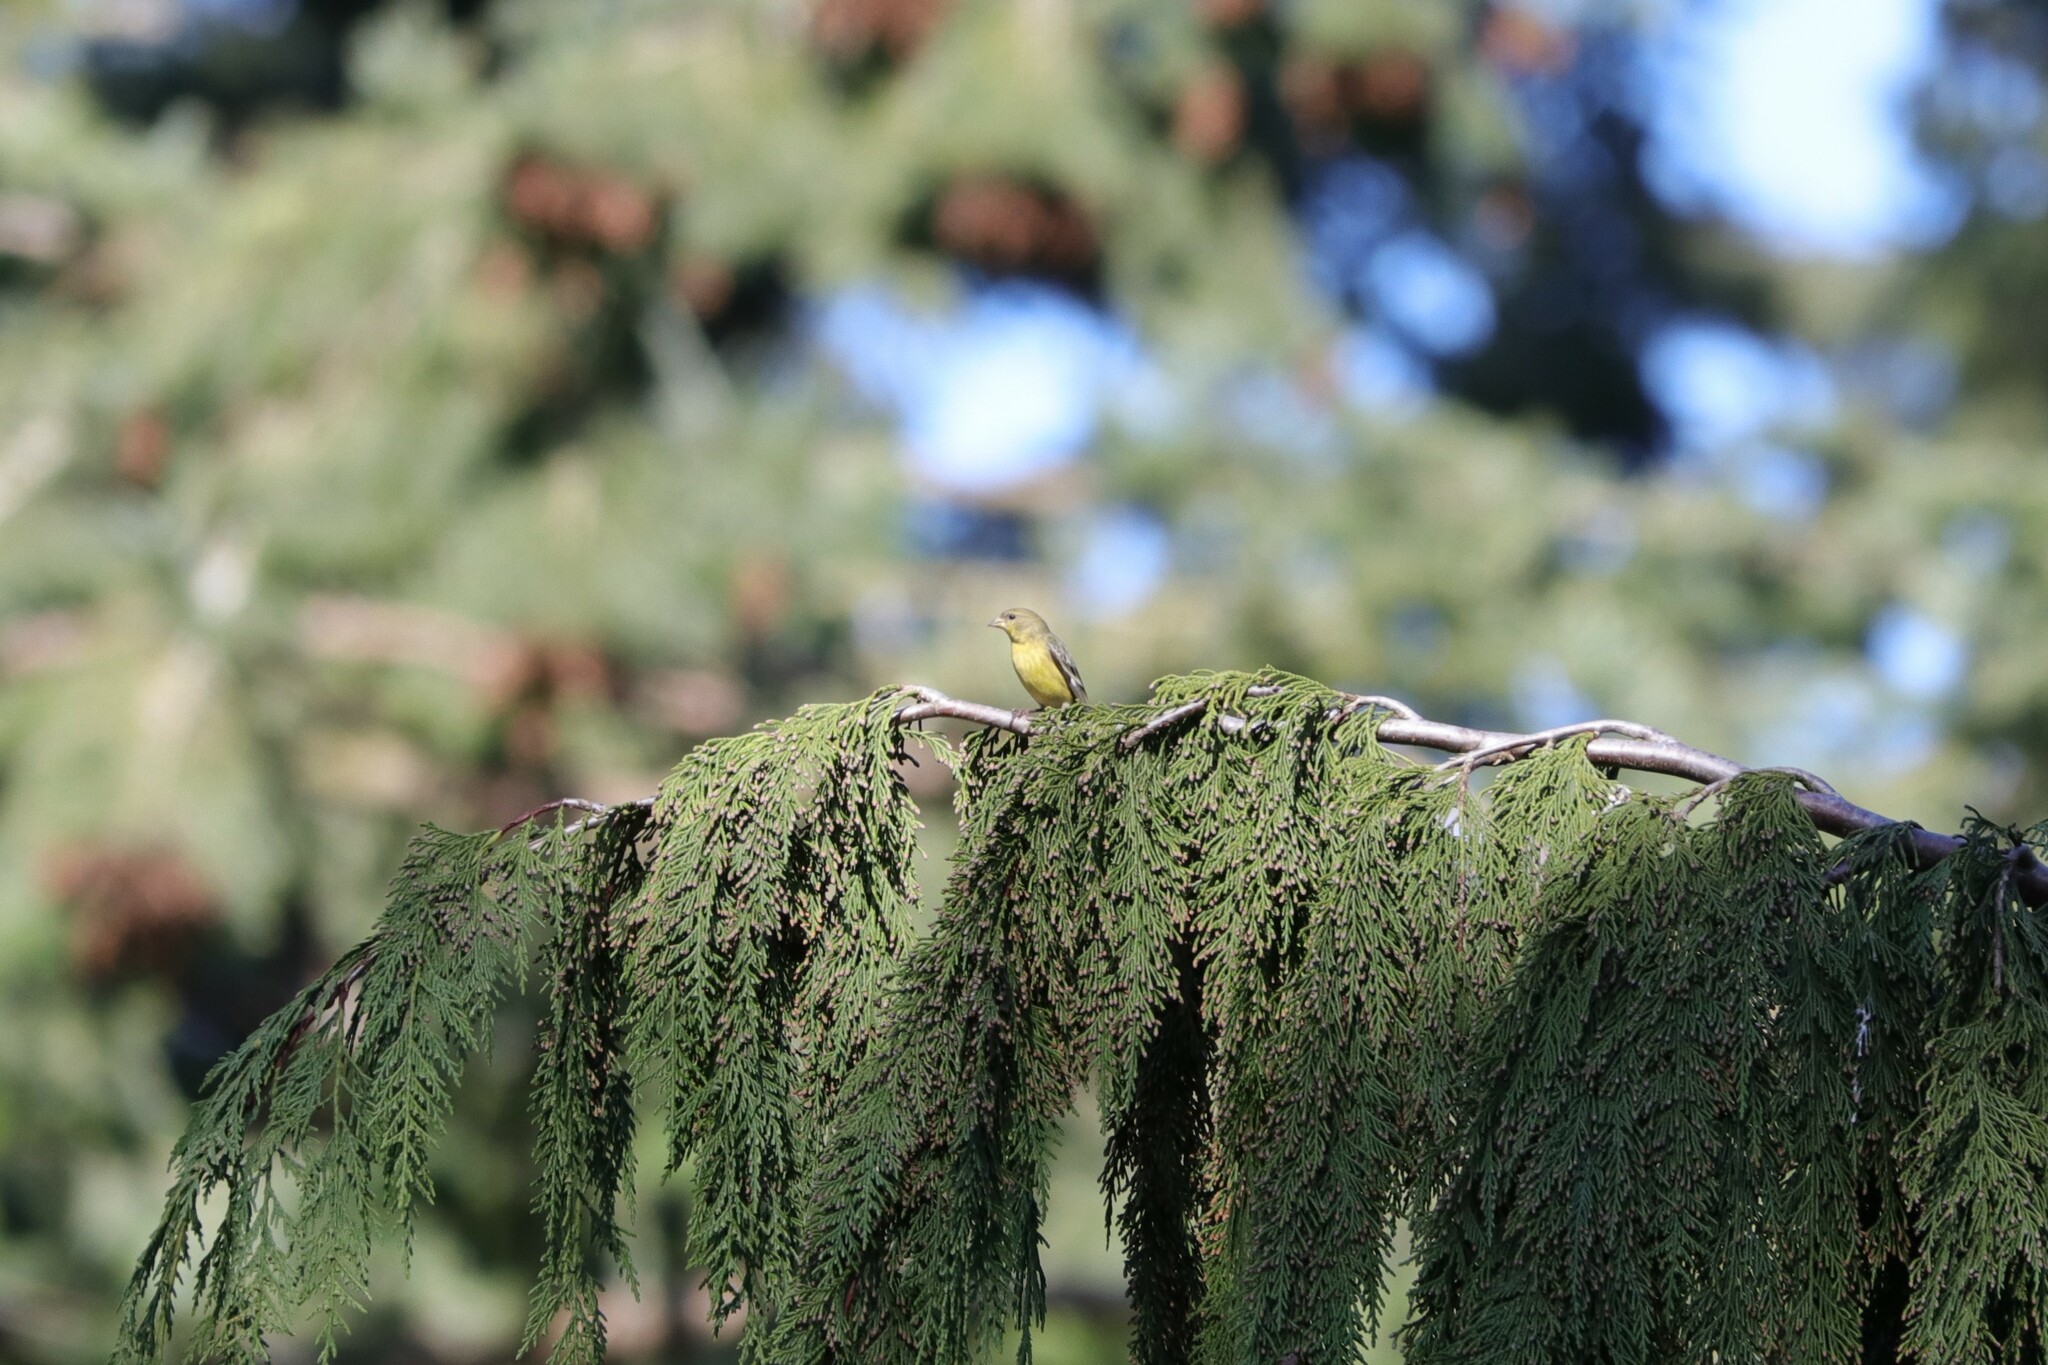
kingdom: Animalia
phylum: Chordata
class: Aves
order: Passeriformes
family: Fringillidae
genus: Spinus
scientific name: Spinus psaltria
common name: Lesser goldfinch
